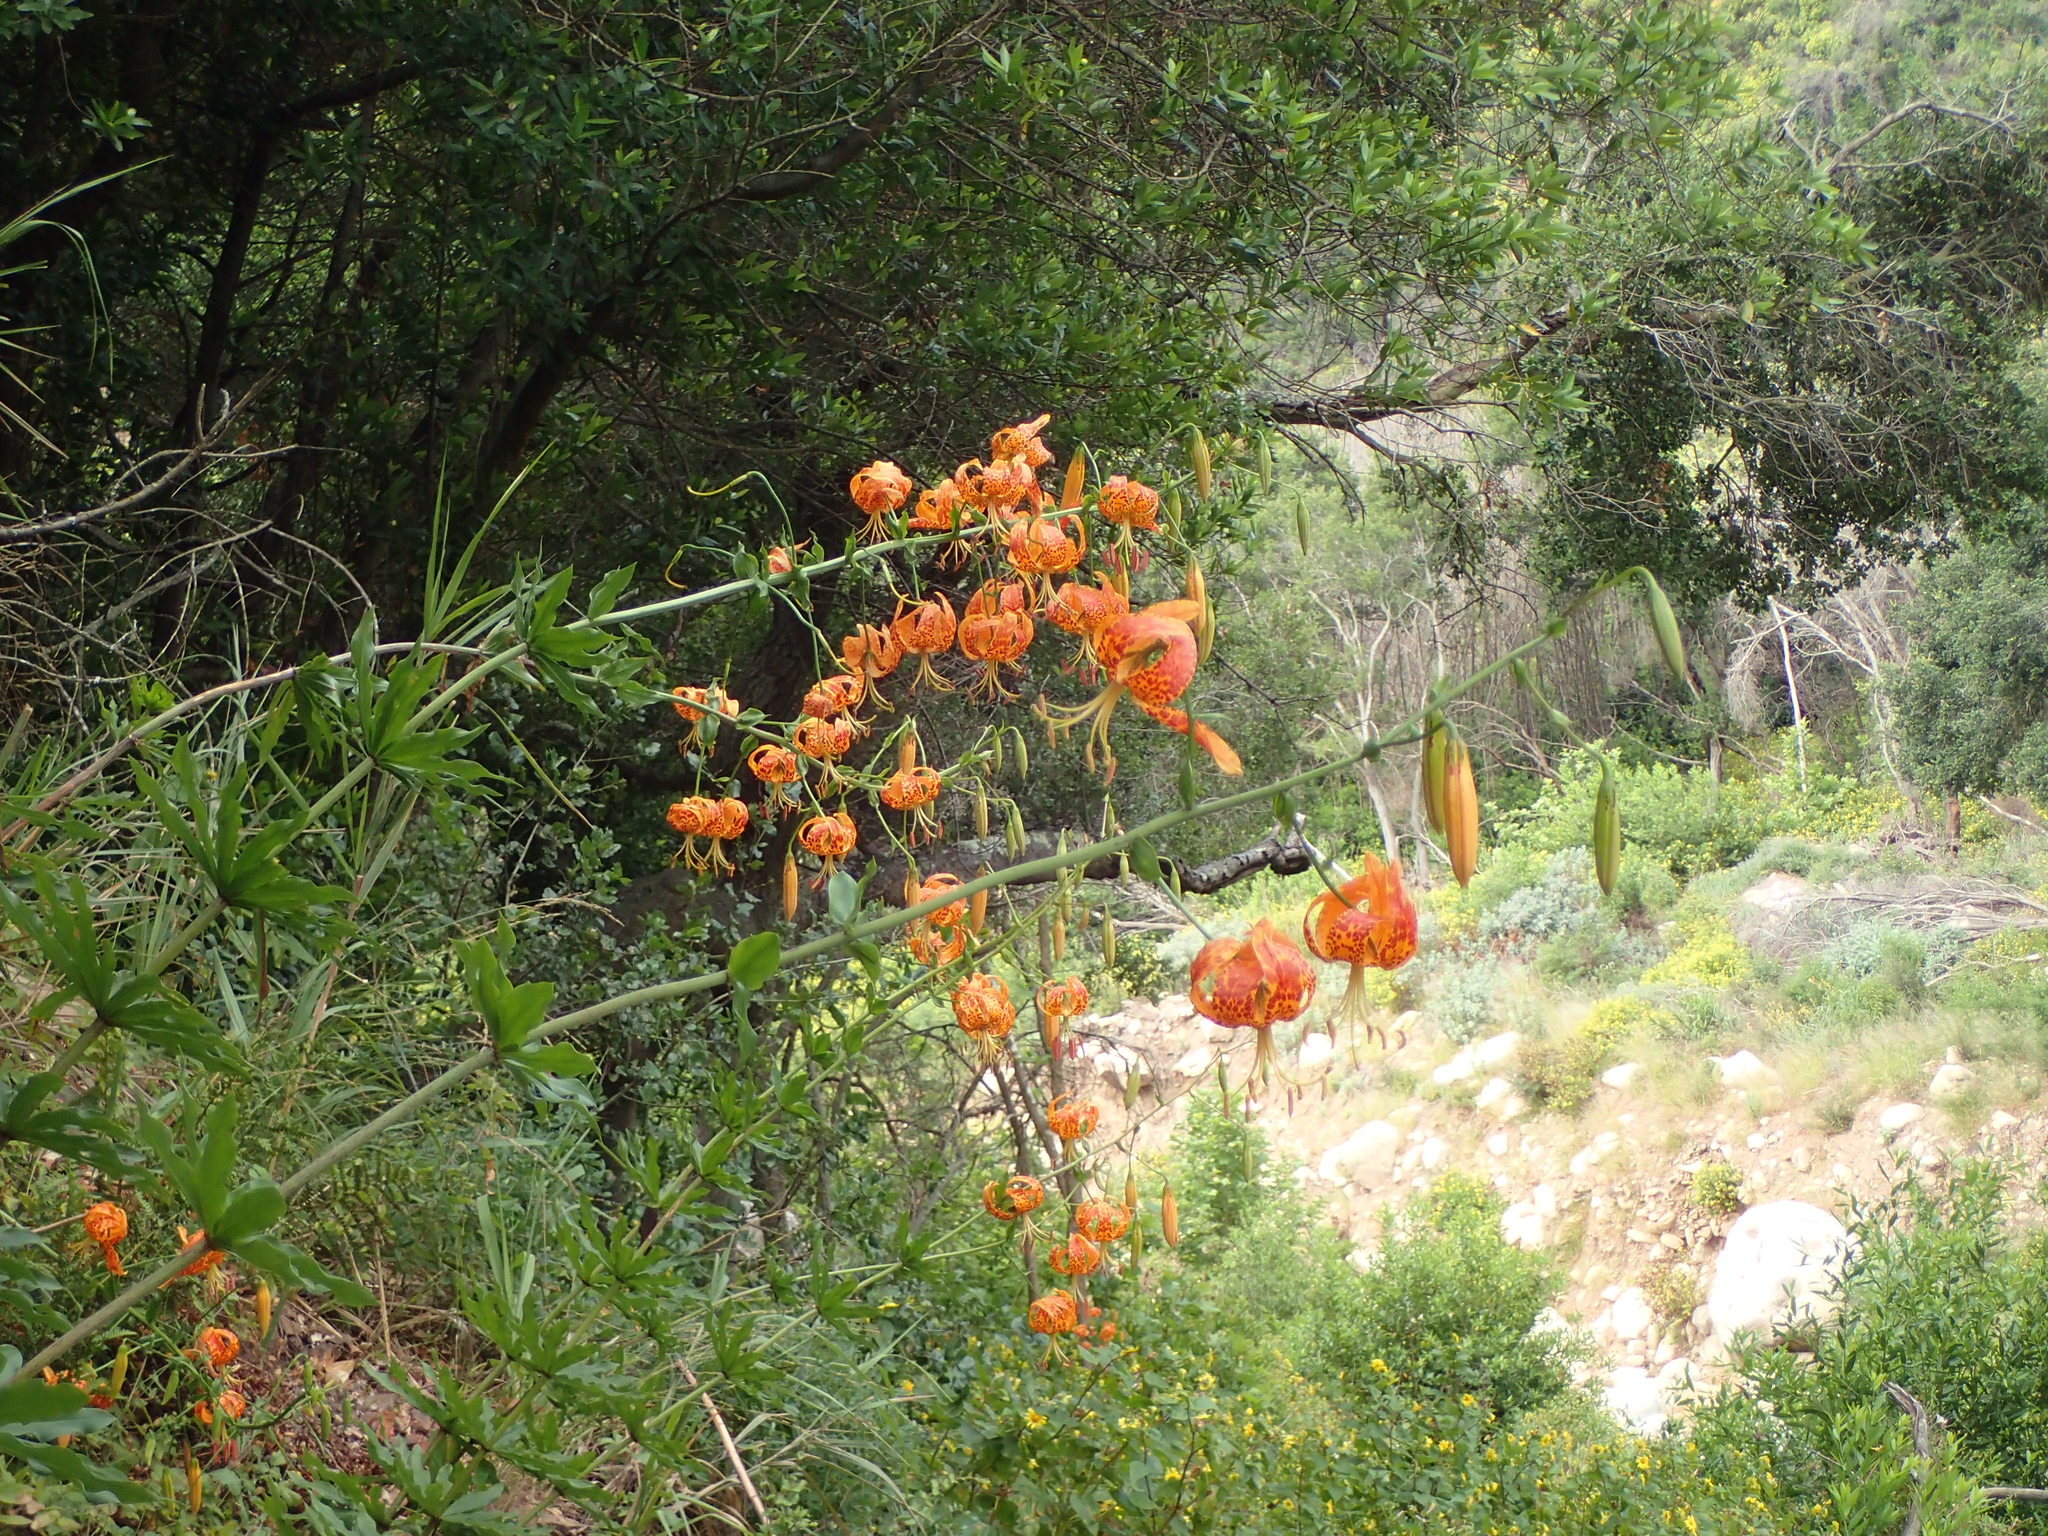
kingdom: Plantae
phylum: Tracheophyta
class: Liliopsida
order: Liliales
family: Liliaceae
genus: Lilium
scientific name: Lilium humboldtii
